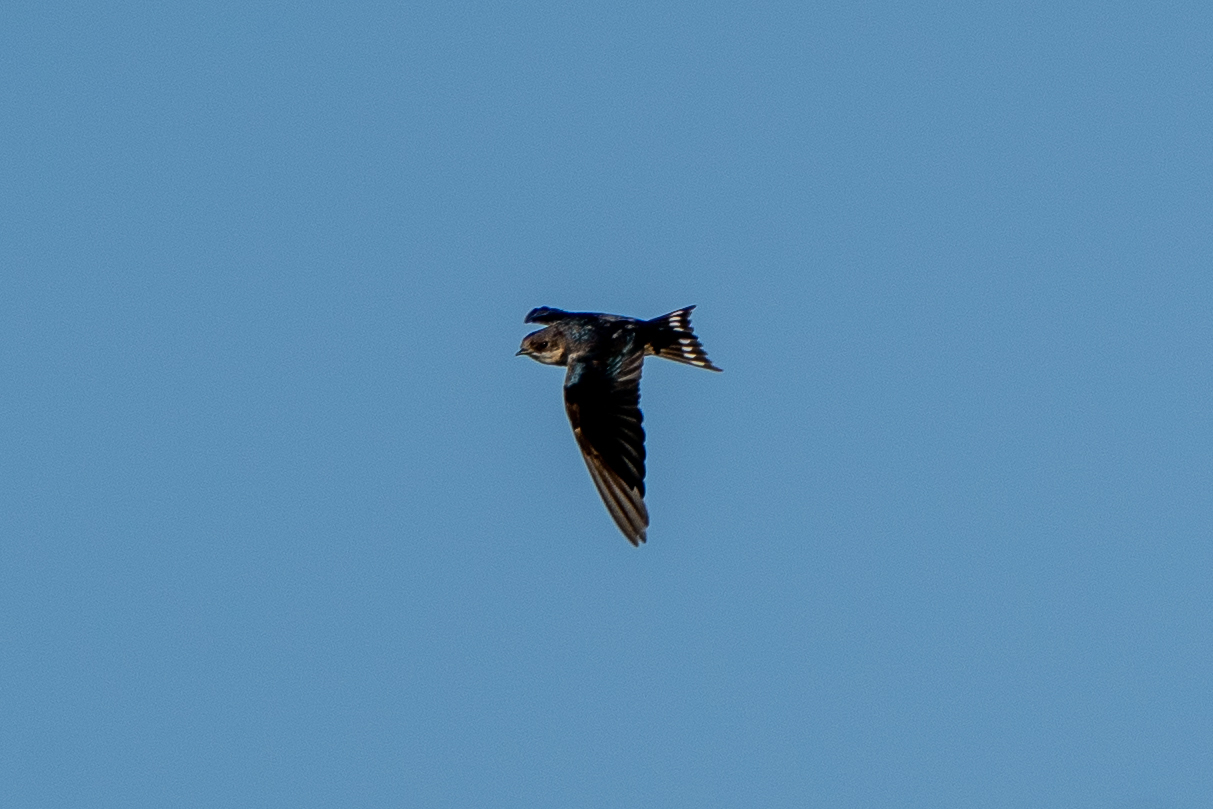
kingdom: Animalia
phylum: Chordata
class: Aves
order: Passeriformes
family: Hirundinidae
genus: Hirundo
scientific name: Hirundo rustica
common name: Barn swallow
